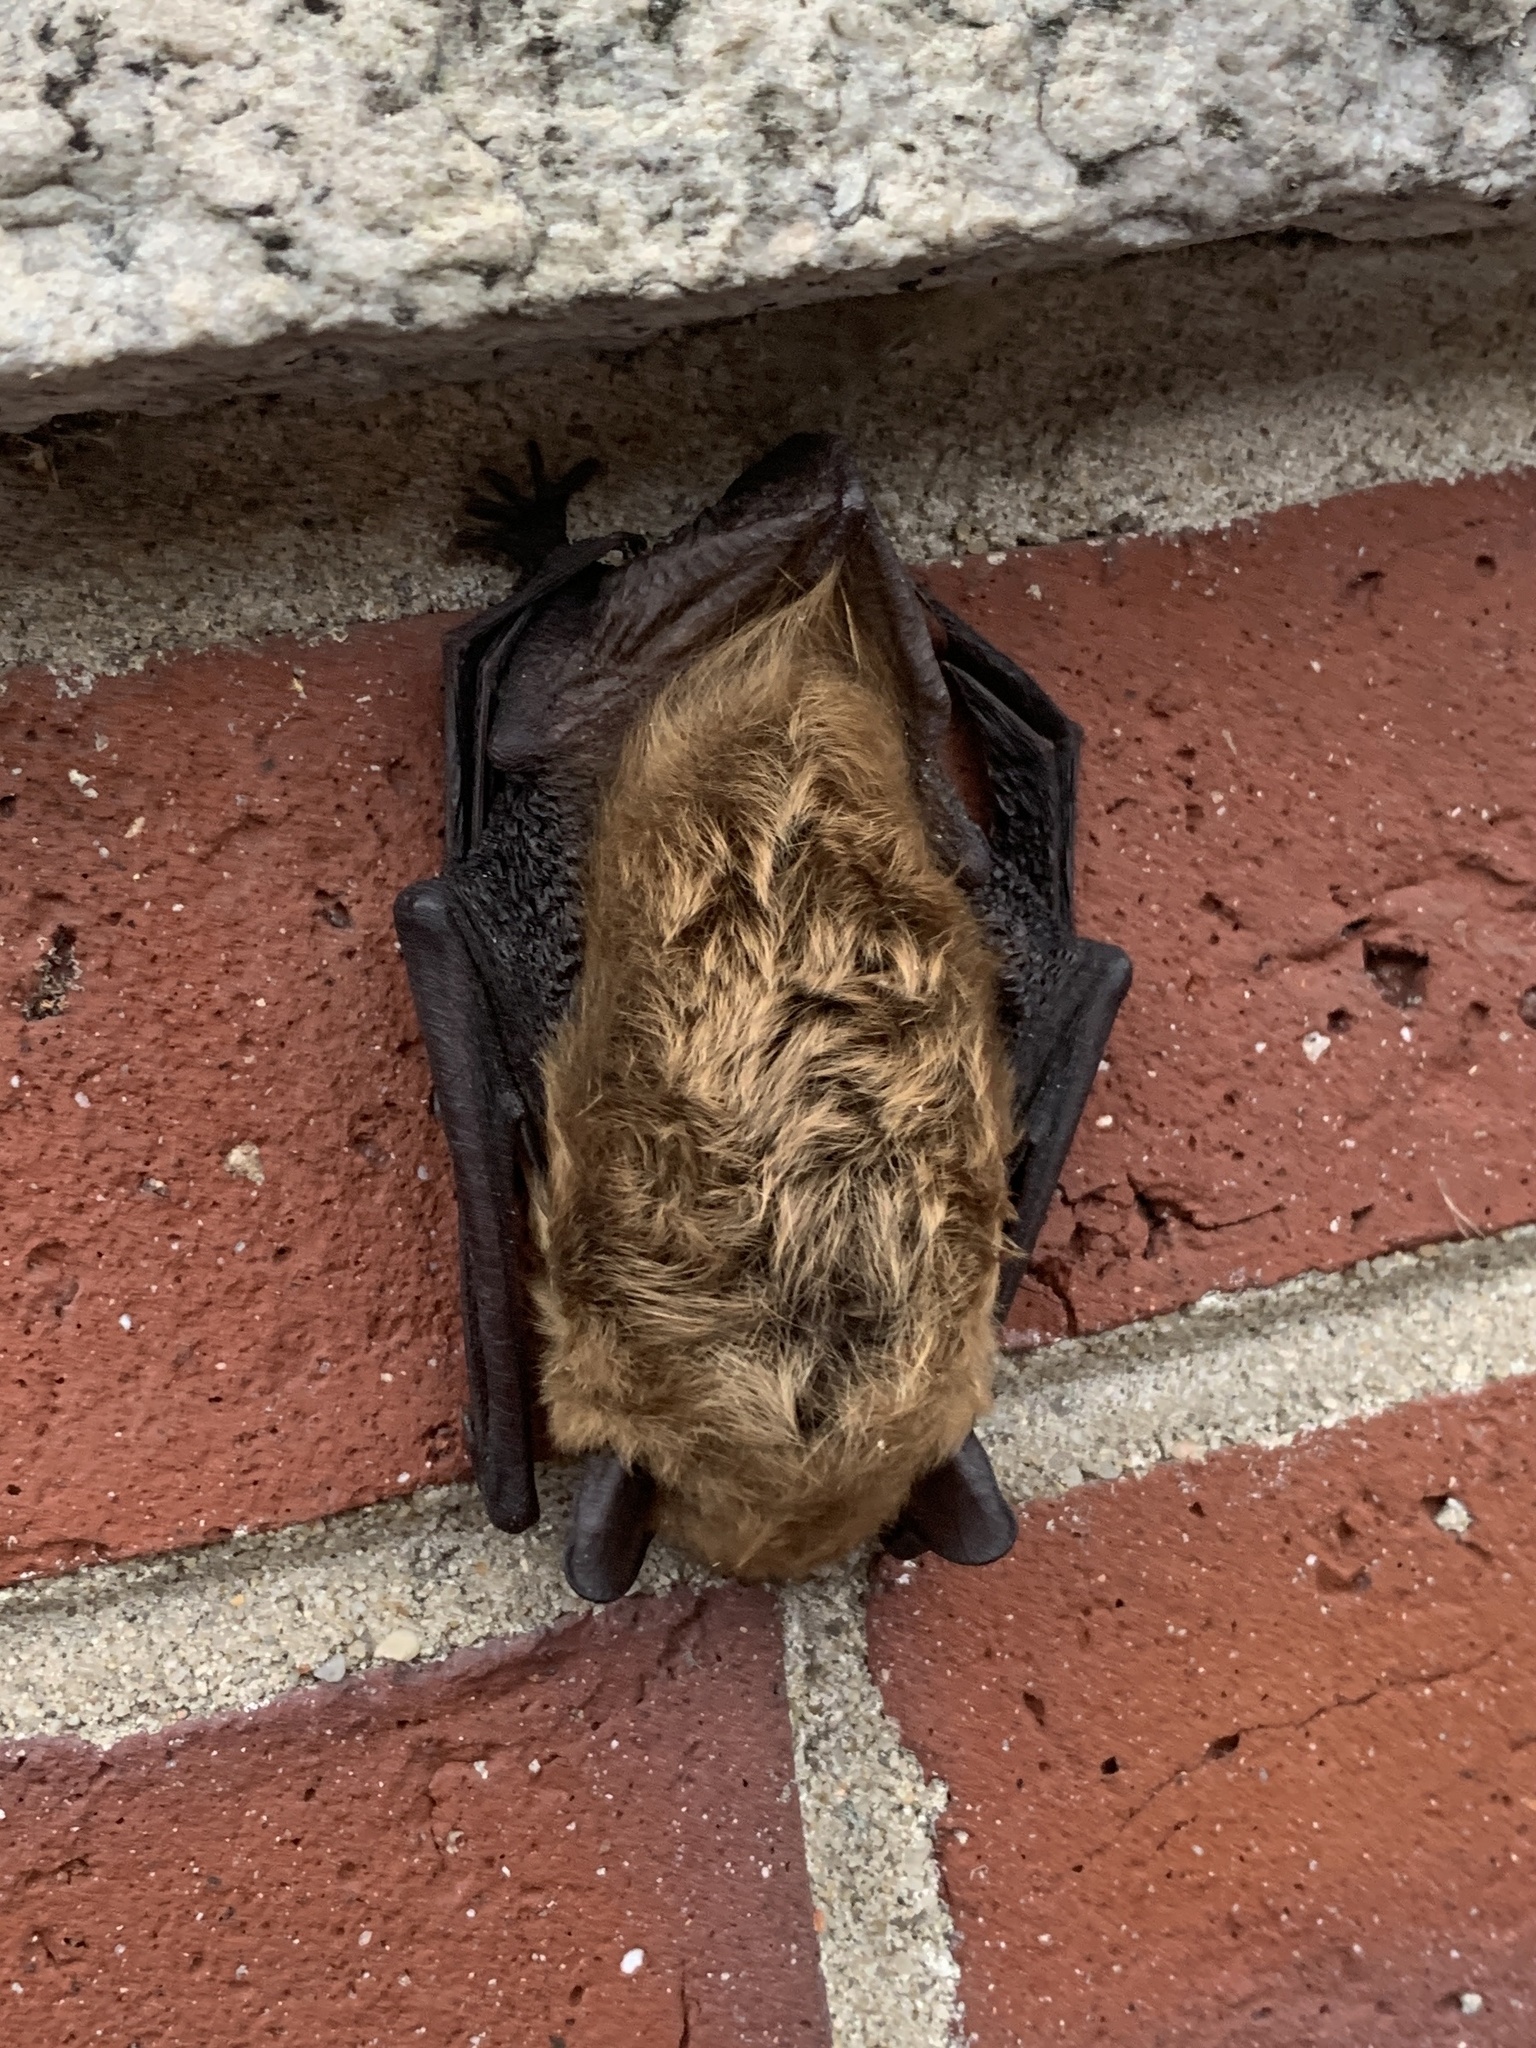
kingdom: Animalia
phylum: Chordata
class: Mammalia
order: Chiroptera
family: Vespertilionidae
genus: Eptesicus
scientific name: Eptesicus fuscus
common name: Big brown bat
